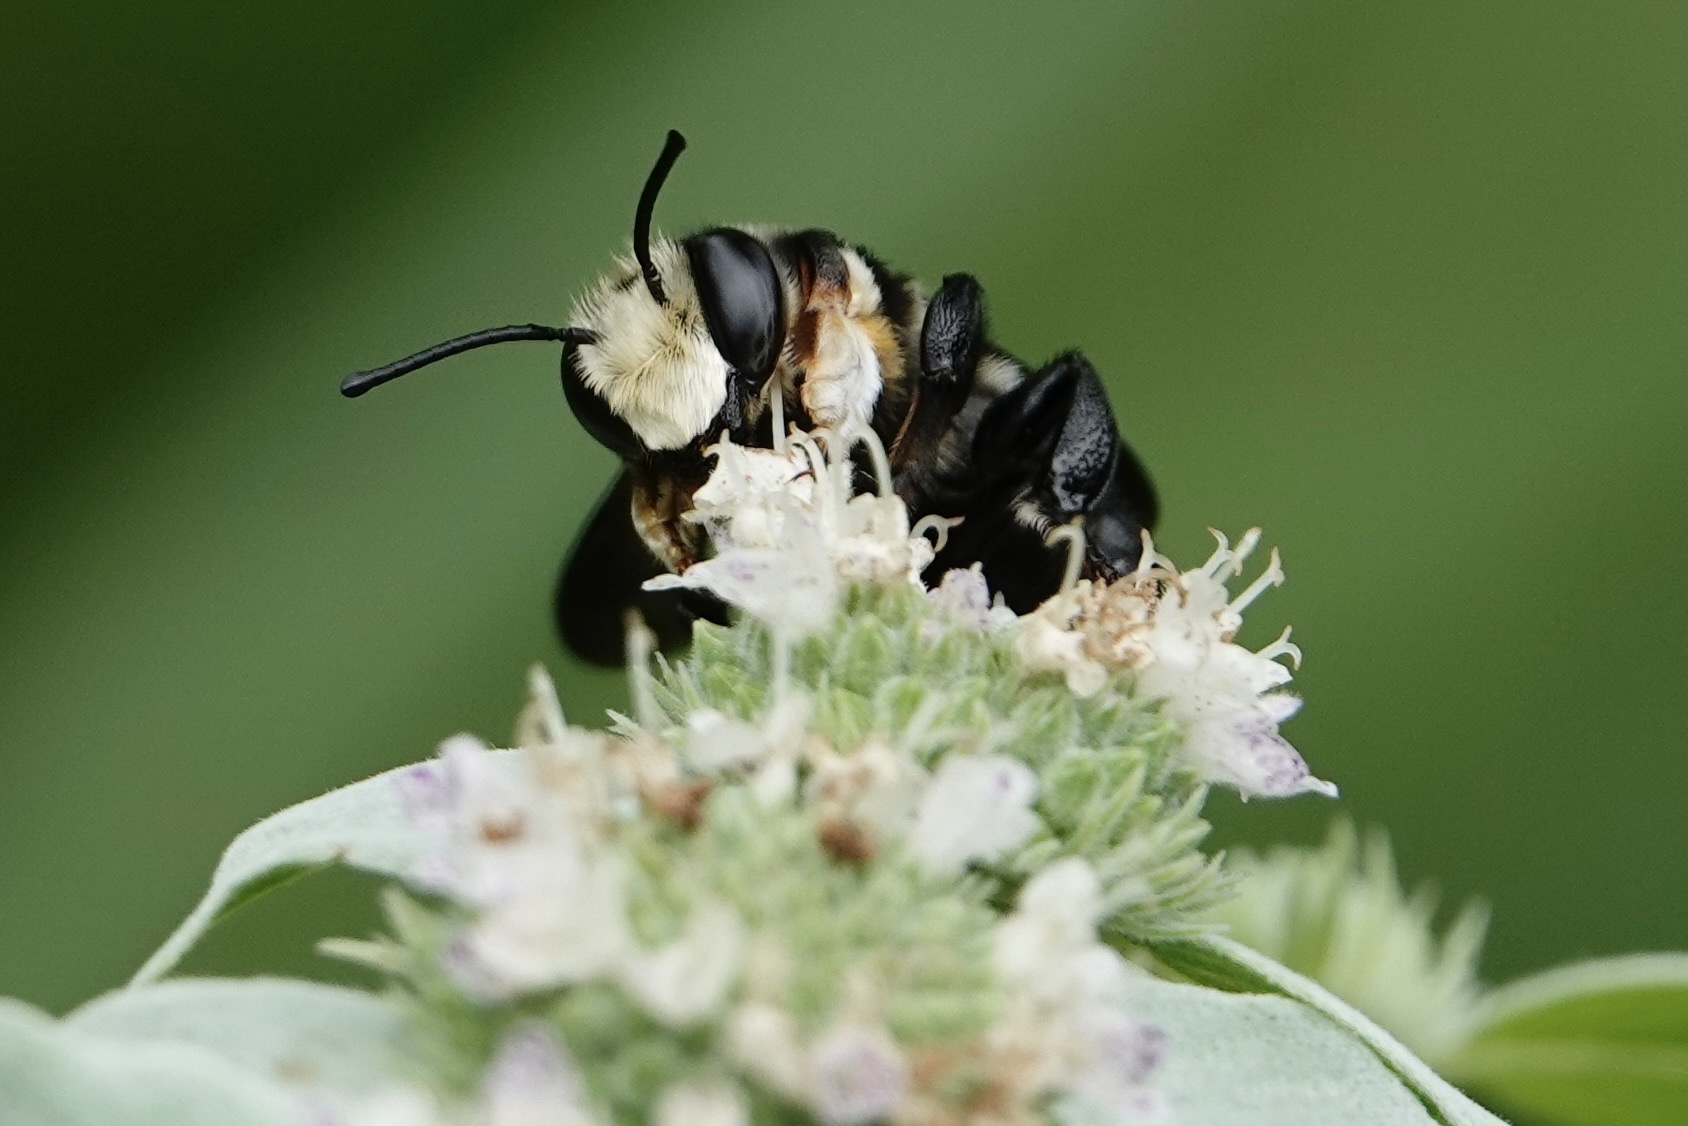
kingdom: Animalia
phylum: Arthropoda
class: Insecta
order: Hymenoptera
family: Megachilidae
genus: Megachile
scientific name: Megachile xylocopoides
